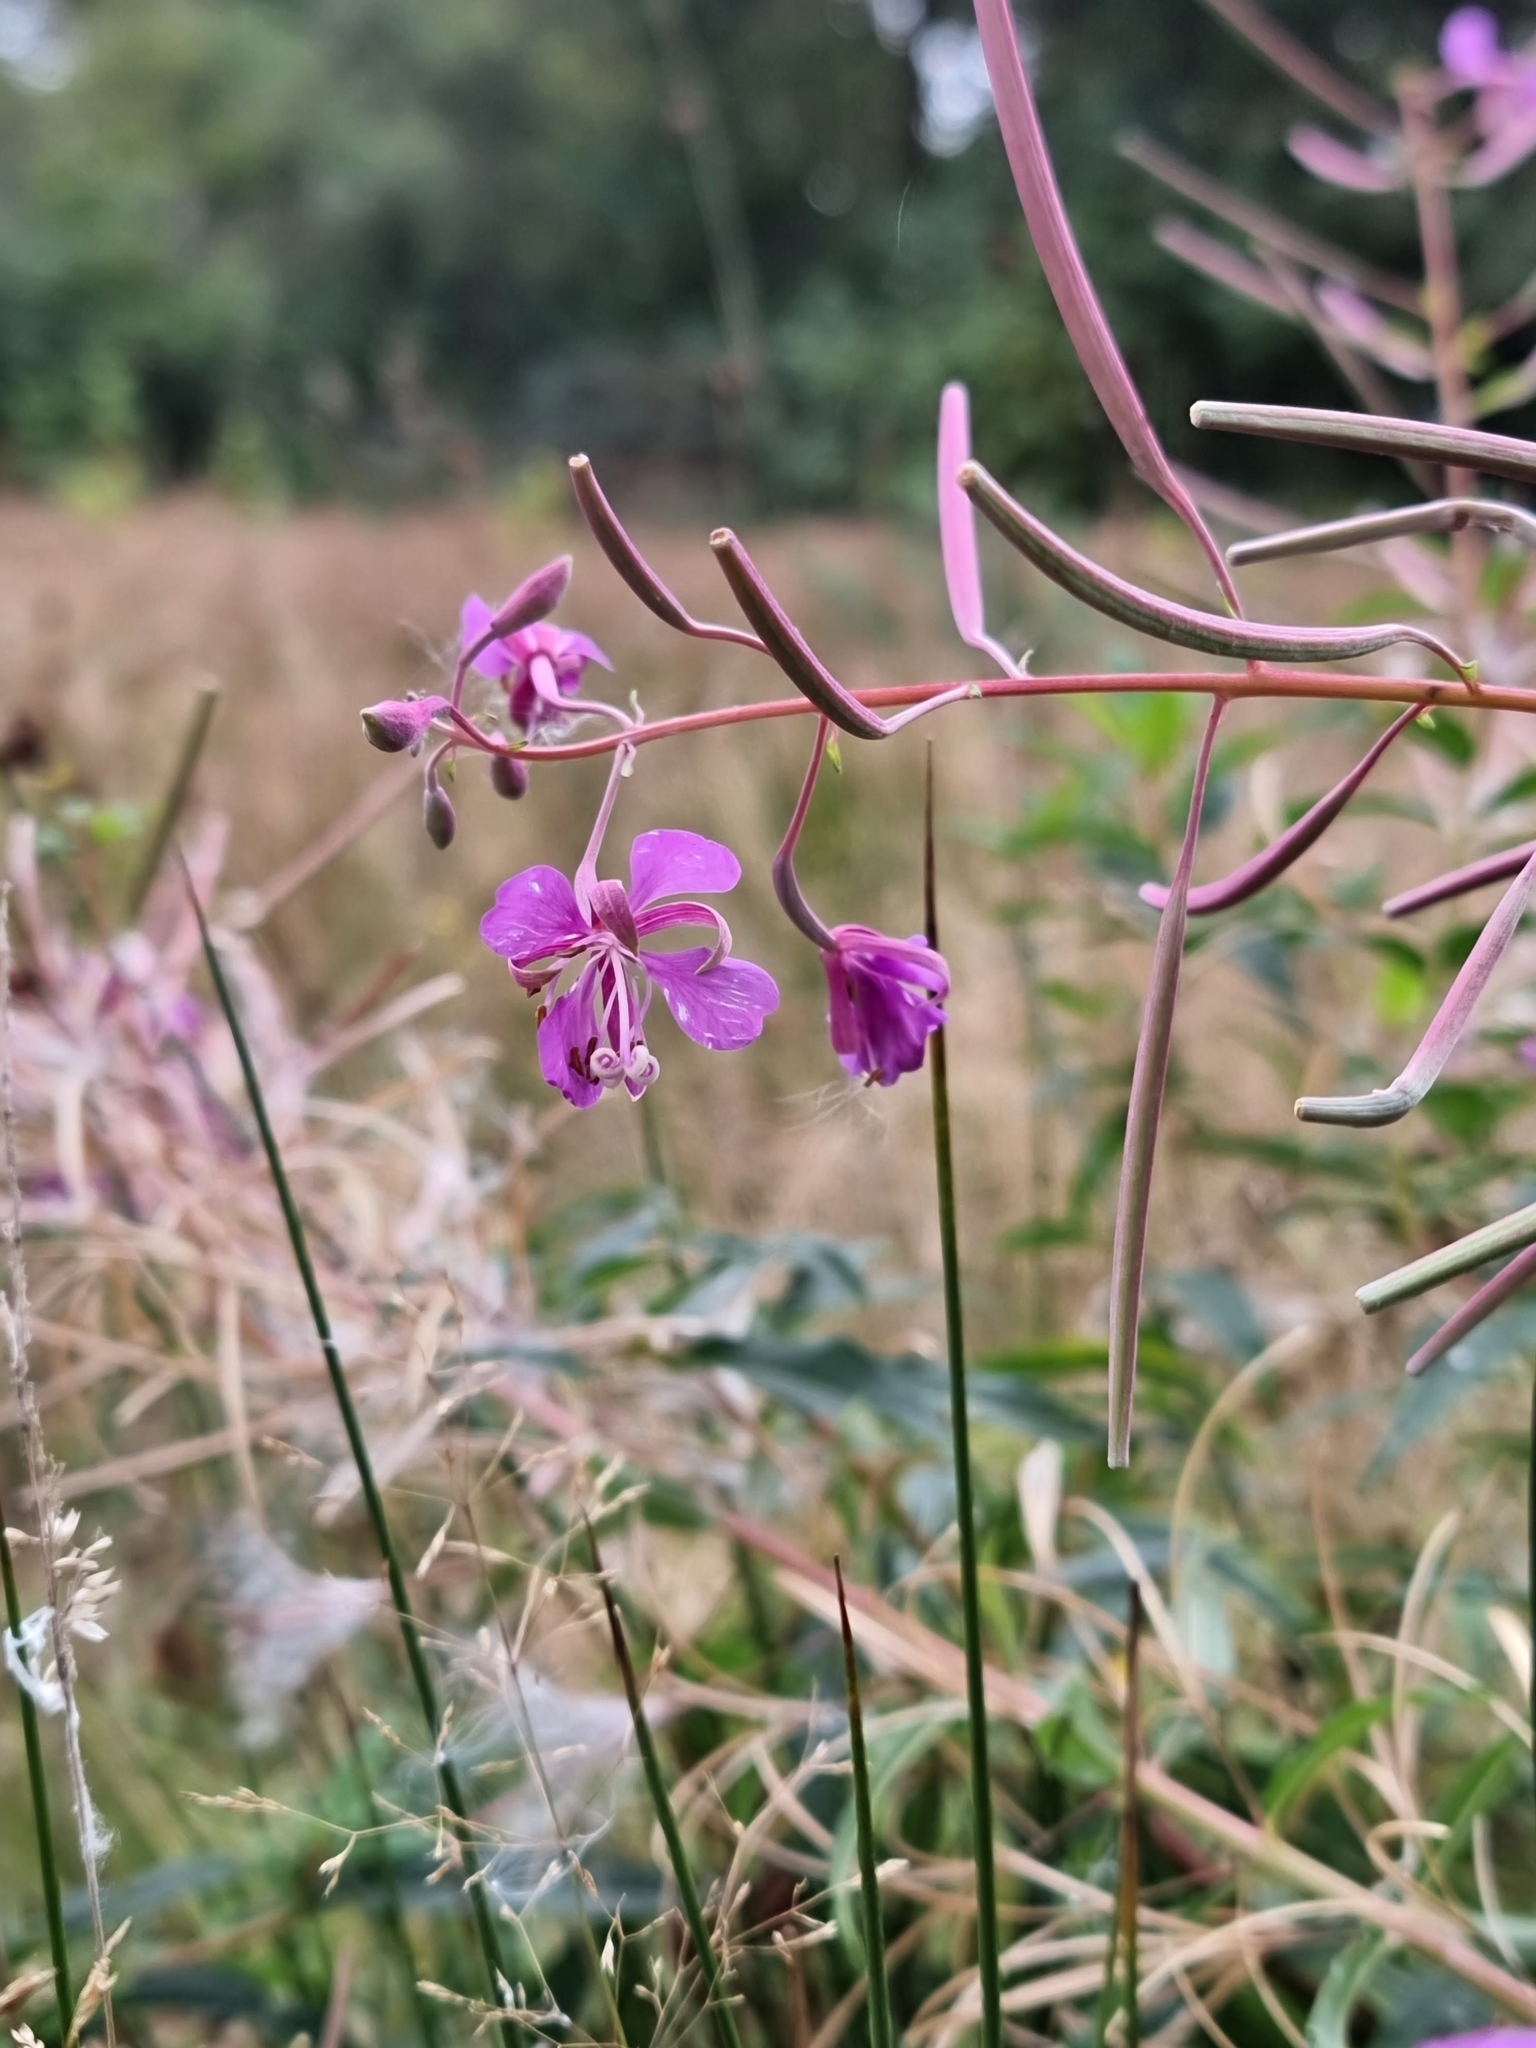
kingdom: Plantae
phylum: Tracheophyta
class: Magnoliopsida
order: Myrtales
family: Onagraceae
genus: Chamaenerion
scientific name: Chamaenerion angustifolium
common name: Fireweed
